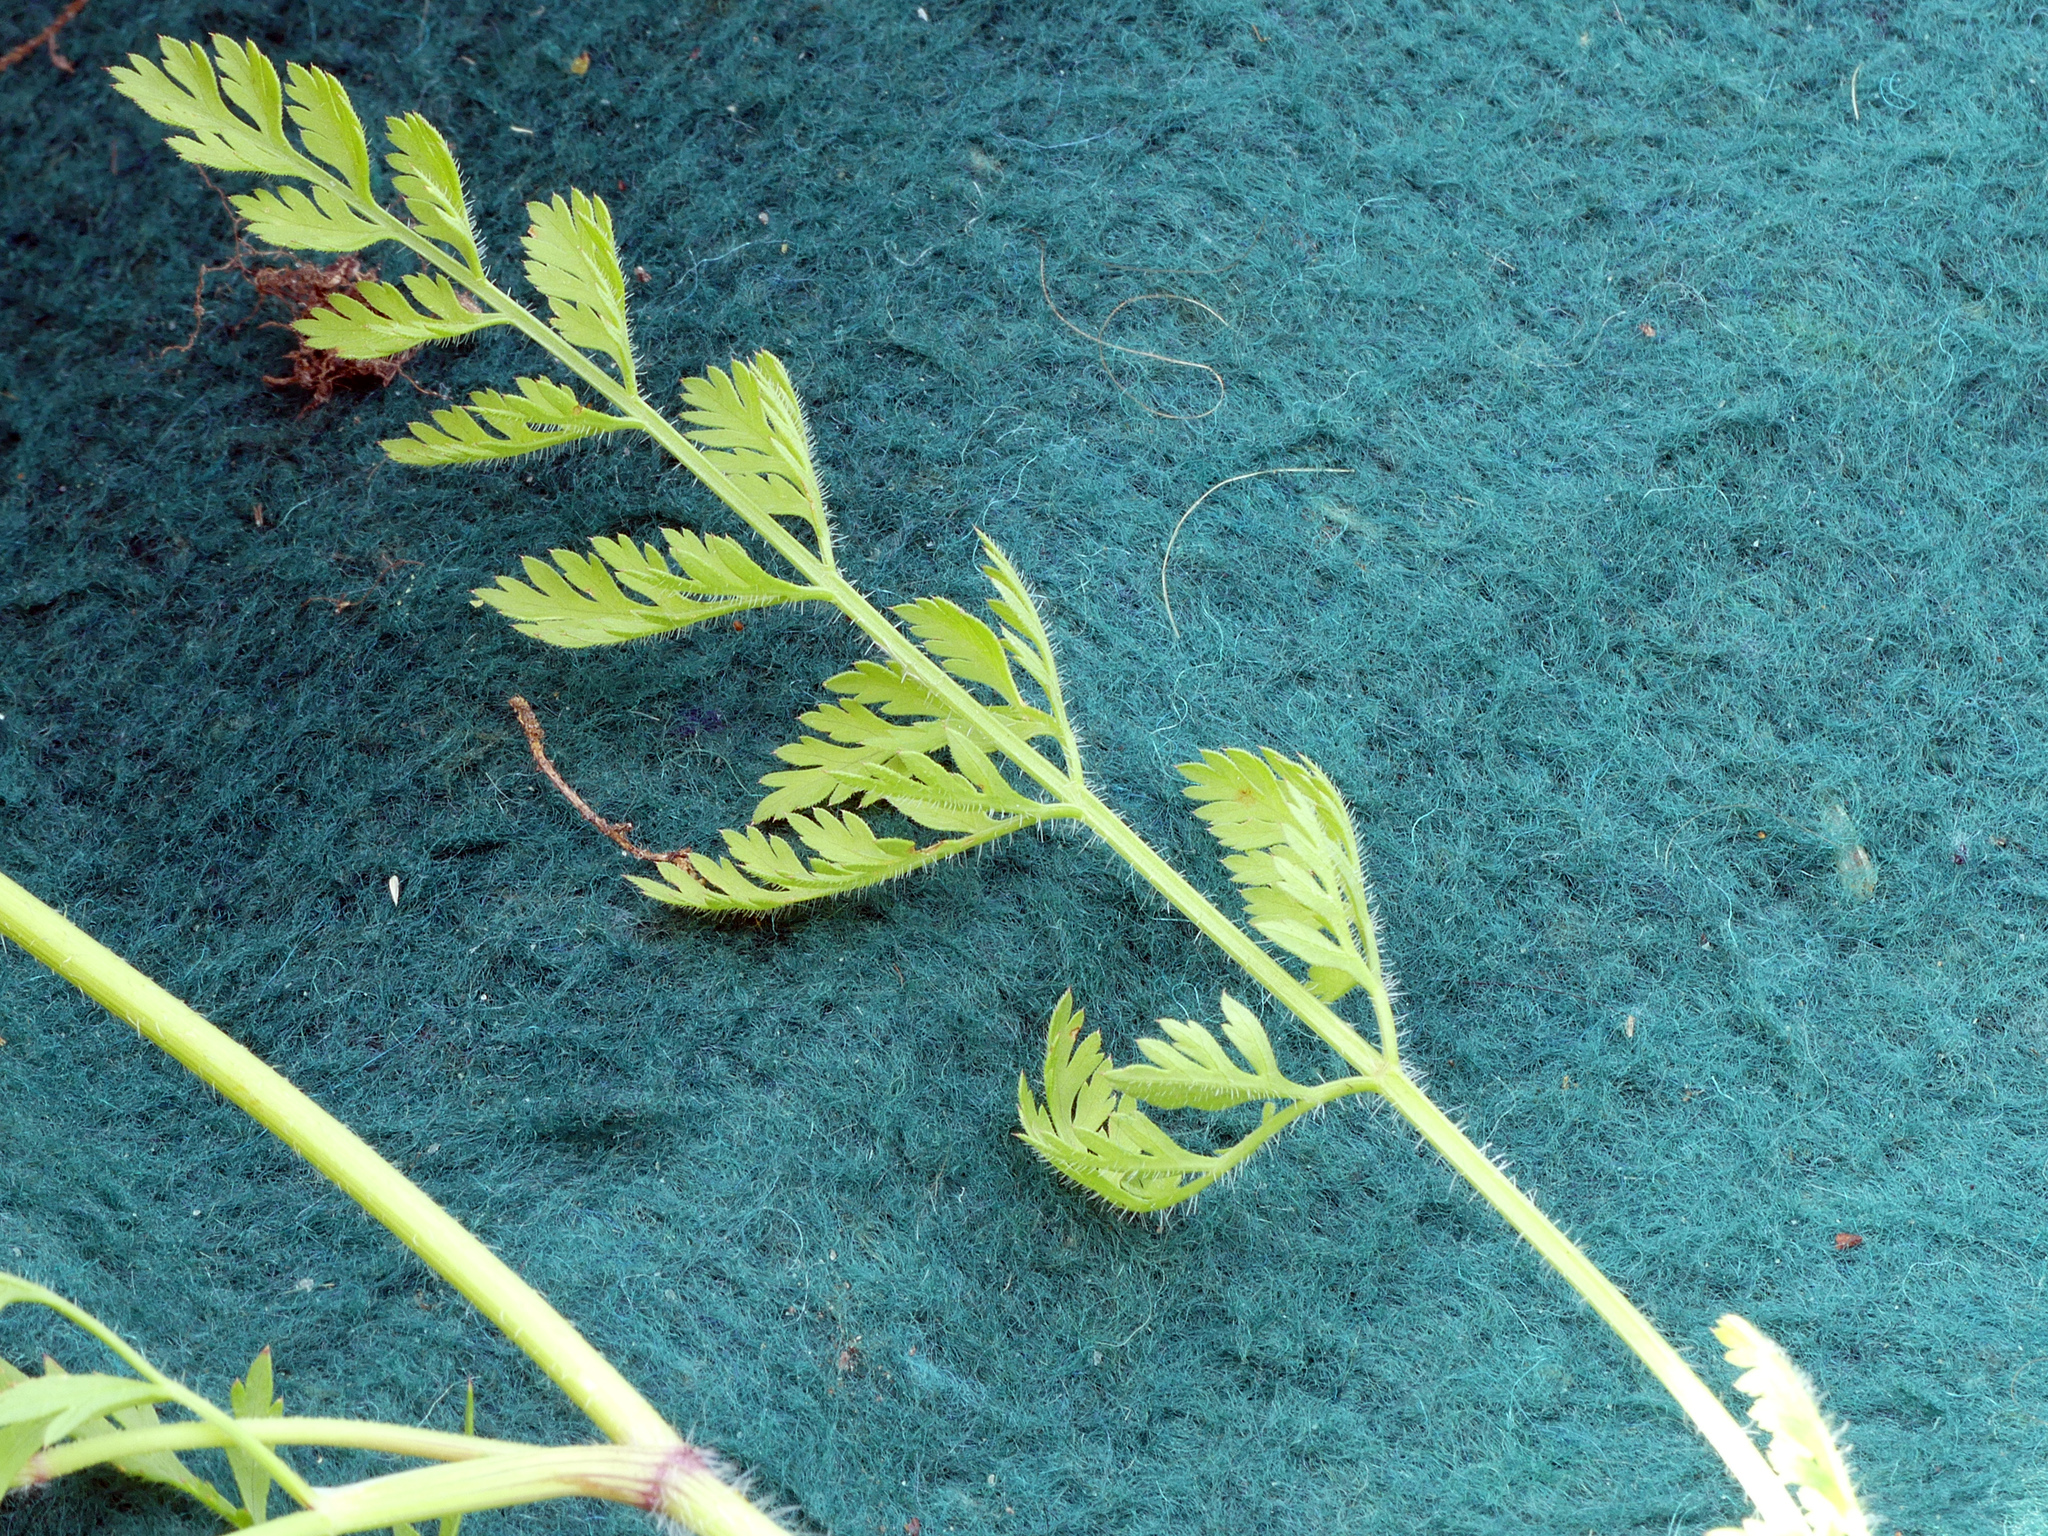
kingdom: Plantae
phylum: Tracheophyta
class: Magnoliopsida
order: Apiales
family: Apiaceae
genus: Daucus
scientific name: Daucus carota
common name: Wild carrot
